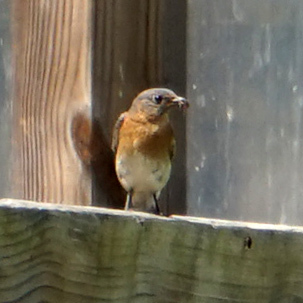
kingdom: Animalia
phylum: Chordata
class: Aves
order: Passeriformes
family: Turdidae
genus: Sialia
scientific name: Sialia sialis
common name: Eastern bluebird
